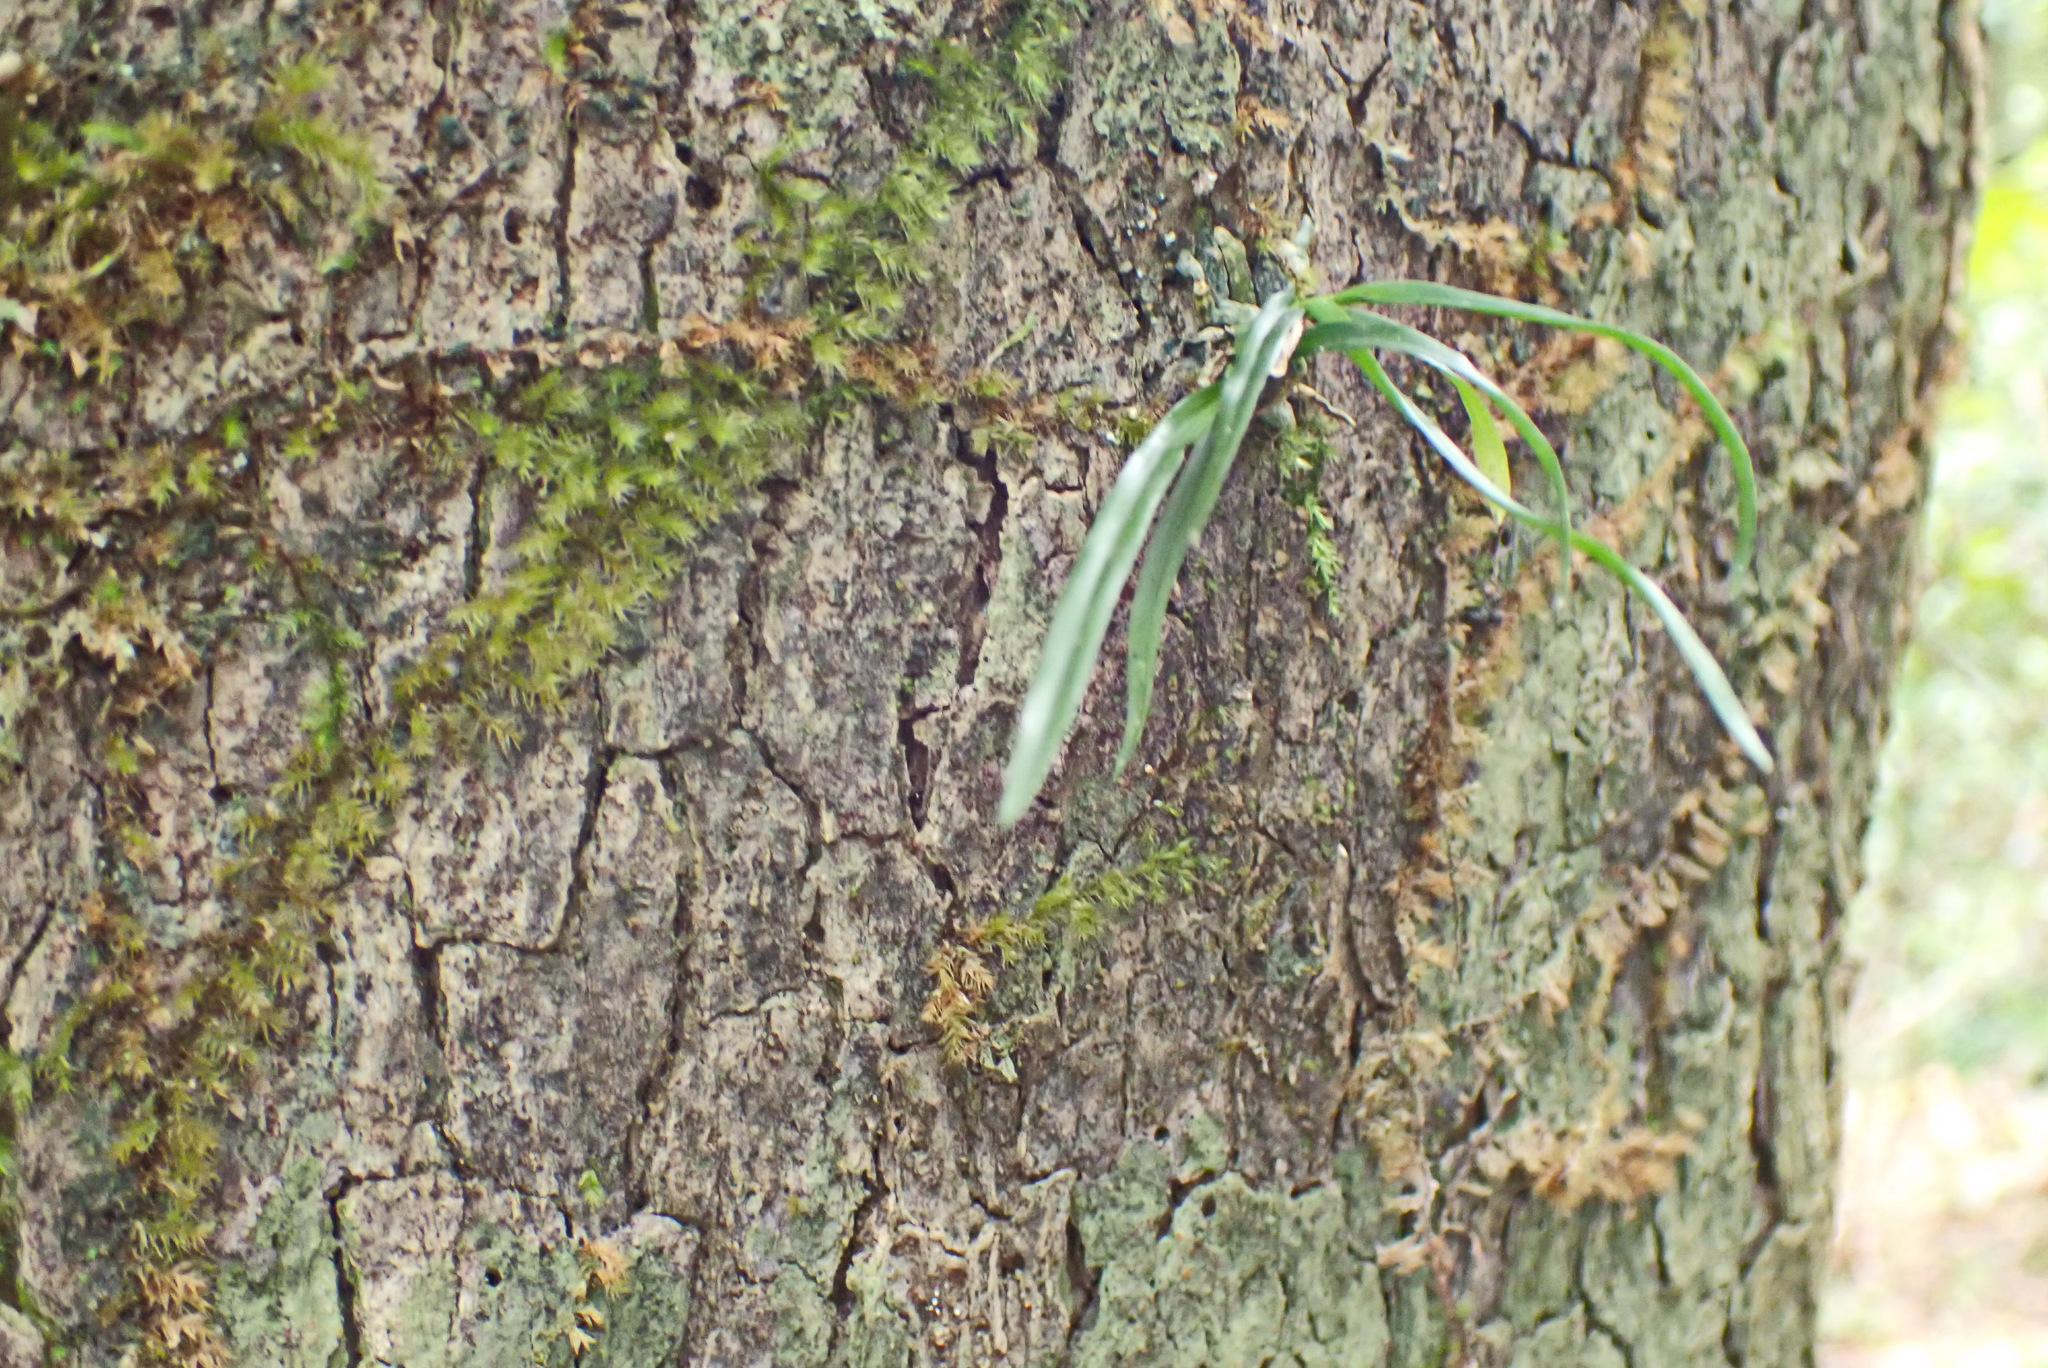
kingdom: Plantae
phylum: Tracheophyta
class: Liliopsida
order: Asparagales
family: Orchidaceae
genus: Angraecum
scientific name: Angraecum pusillum
